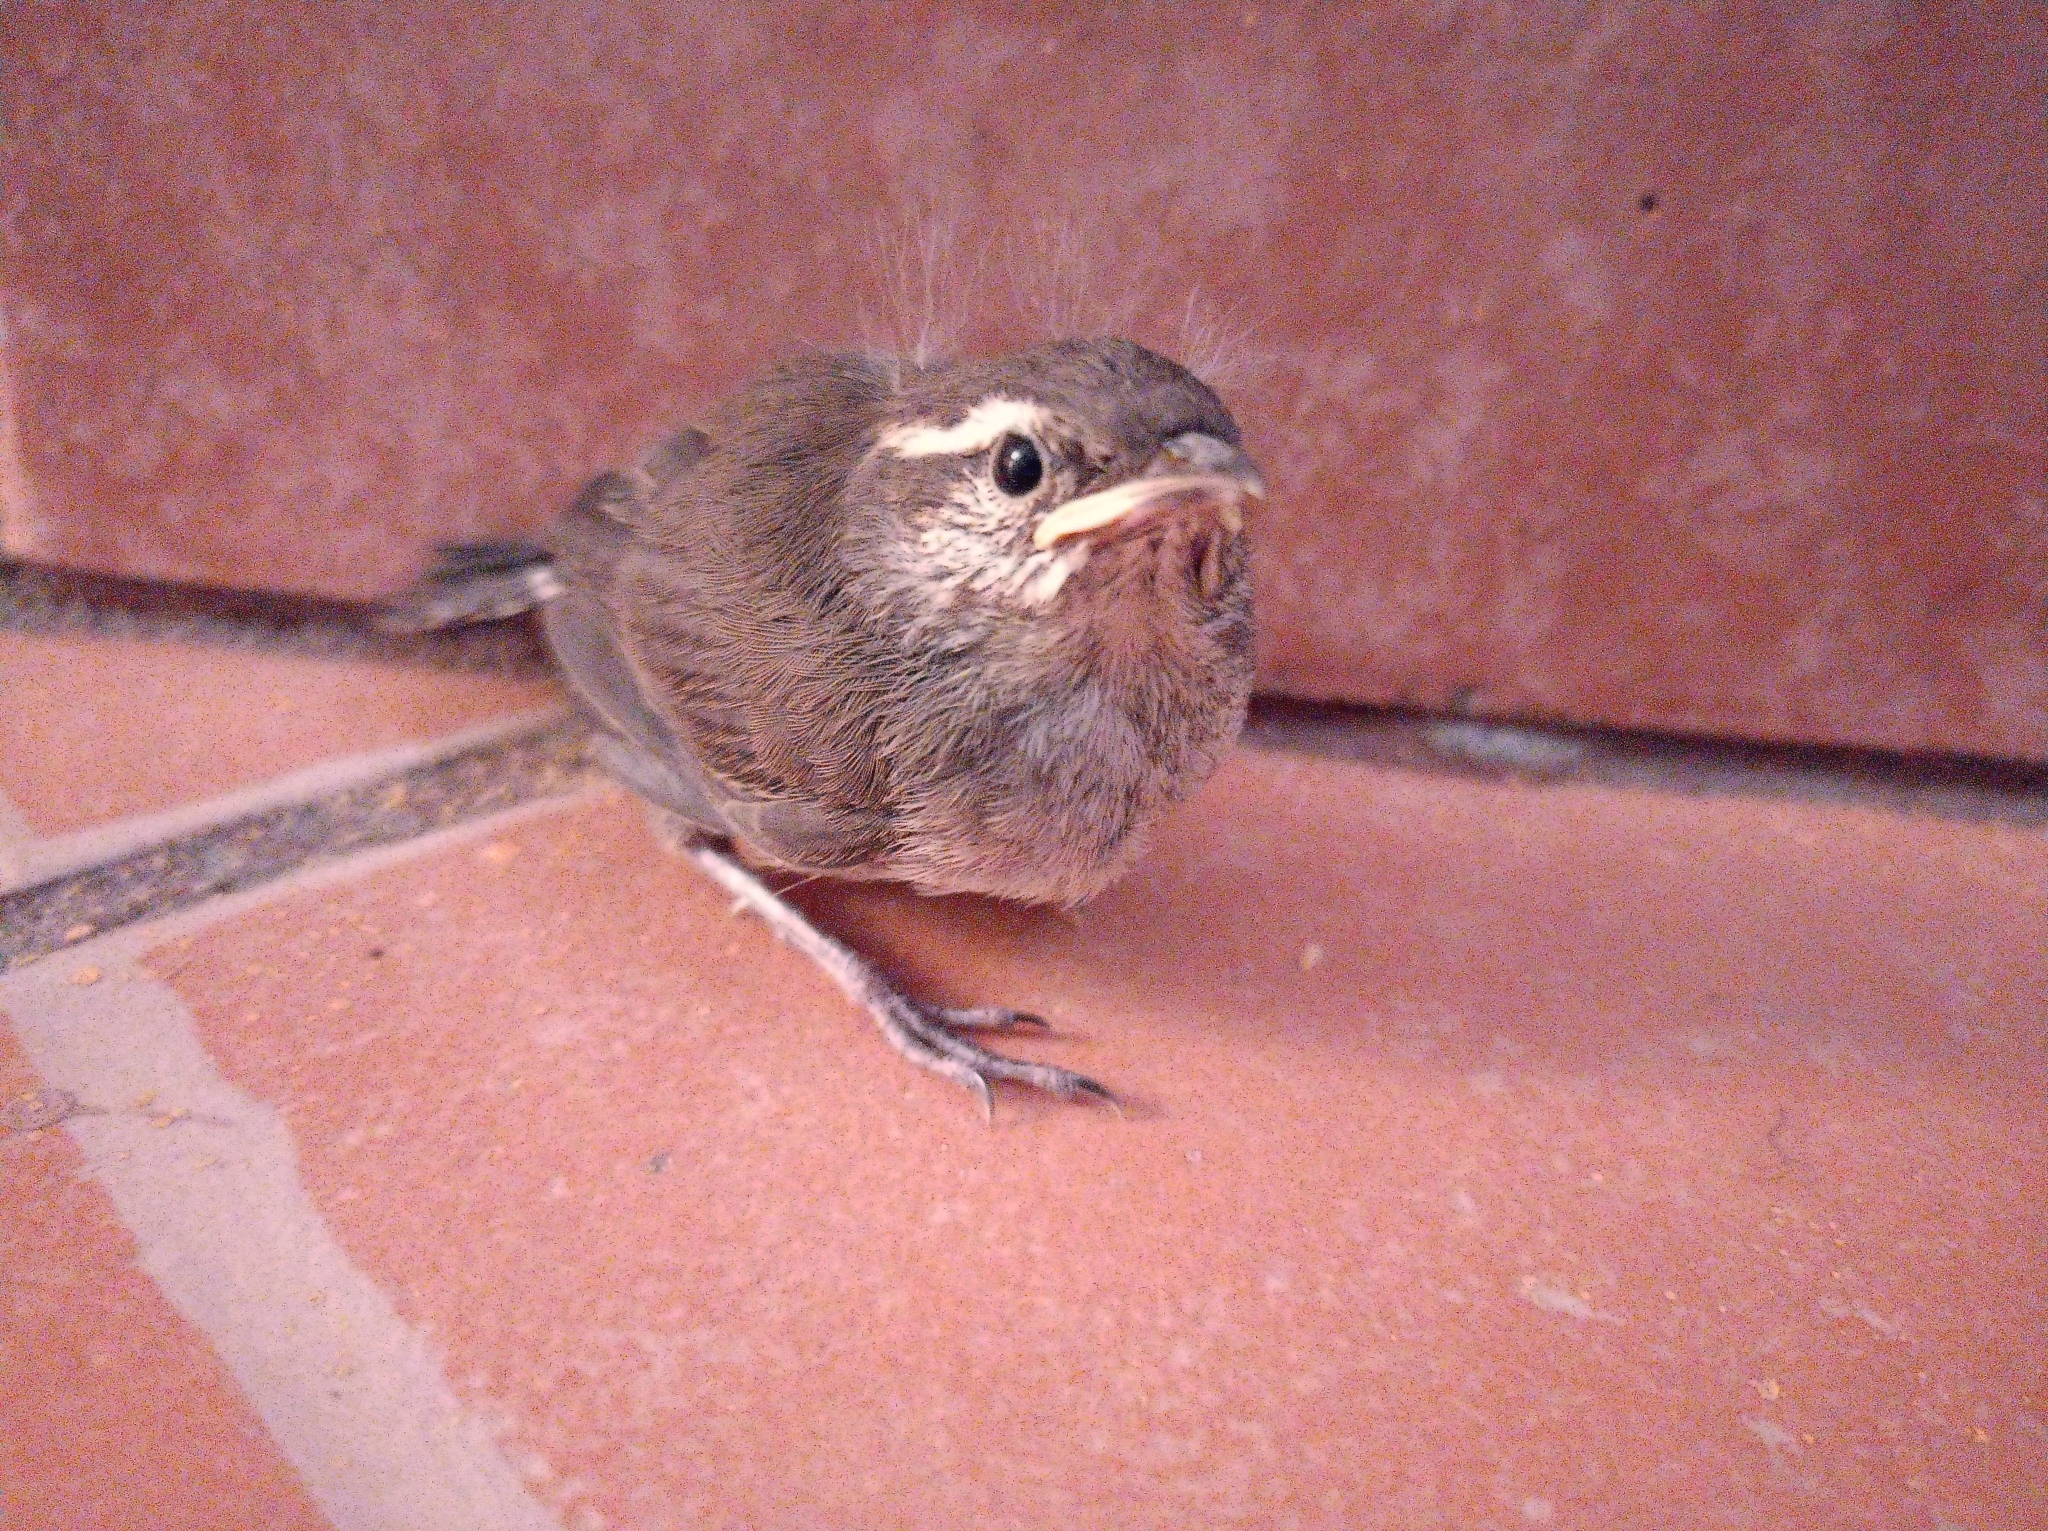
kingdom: Animalia
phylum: Chordata
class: Aves
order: Passeriformes
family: Troglodytidae
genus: Thryomanes
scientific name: Thryomanes bewickii
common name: Bewick's wren
